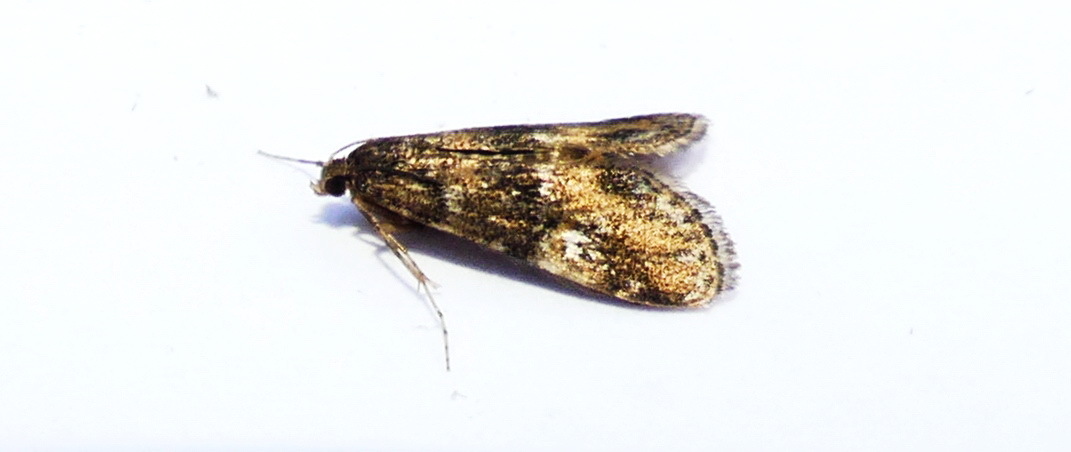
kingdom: Animalia
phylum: Arthropoda
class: Insecta
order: Lepidoptera
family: Crambidae
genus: Elophila
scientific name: Elophila obliteralis
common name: Waterlily leafcutter moth
